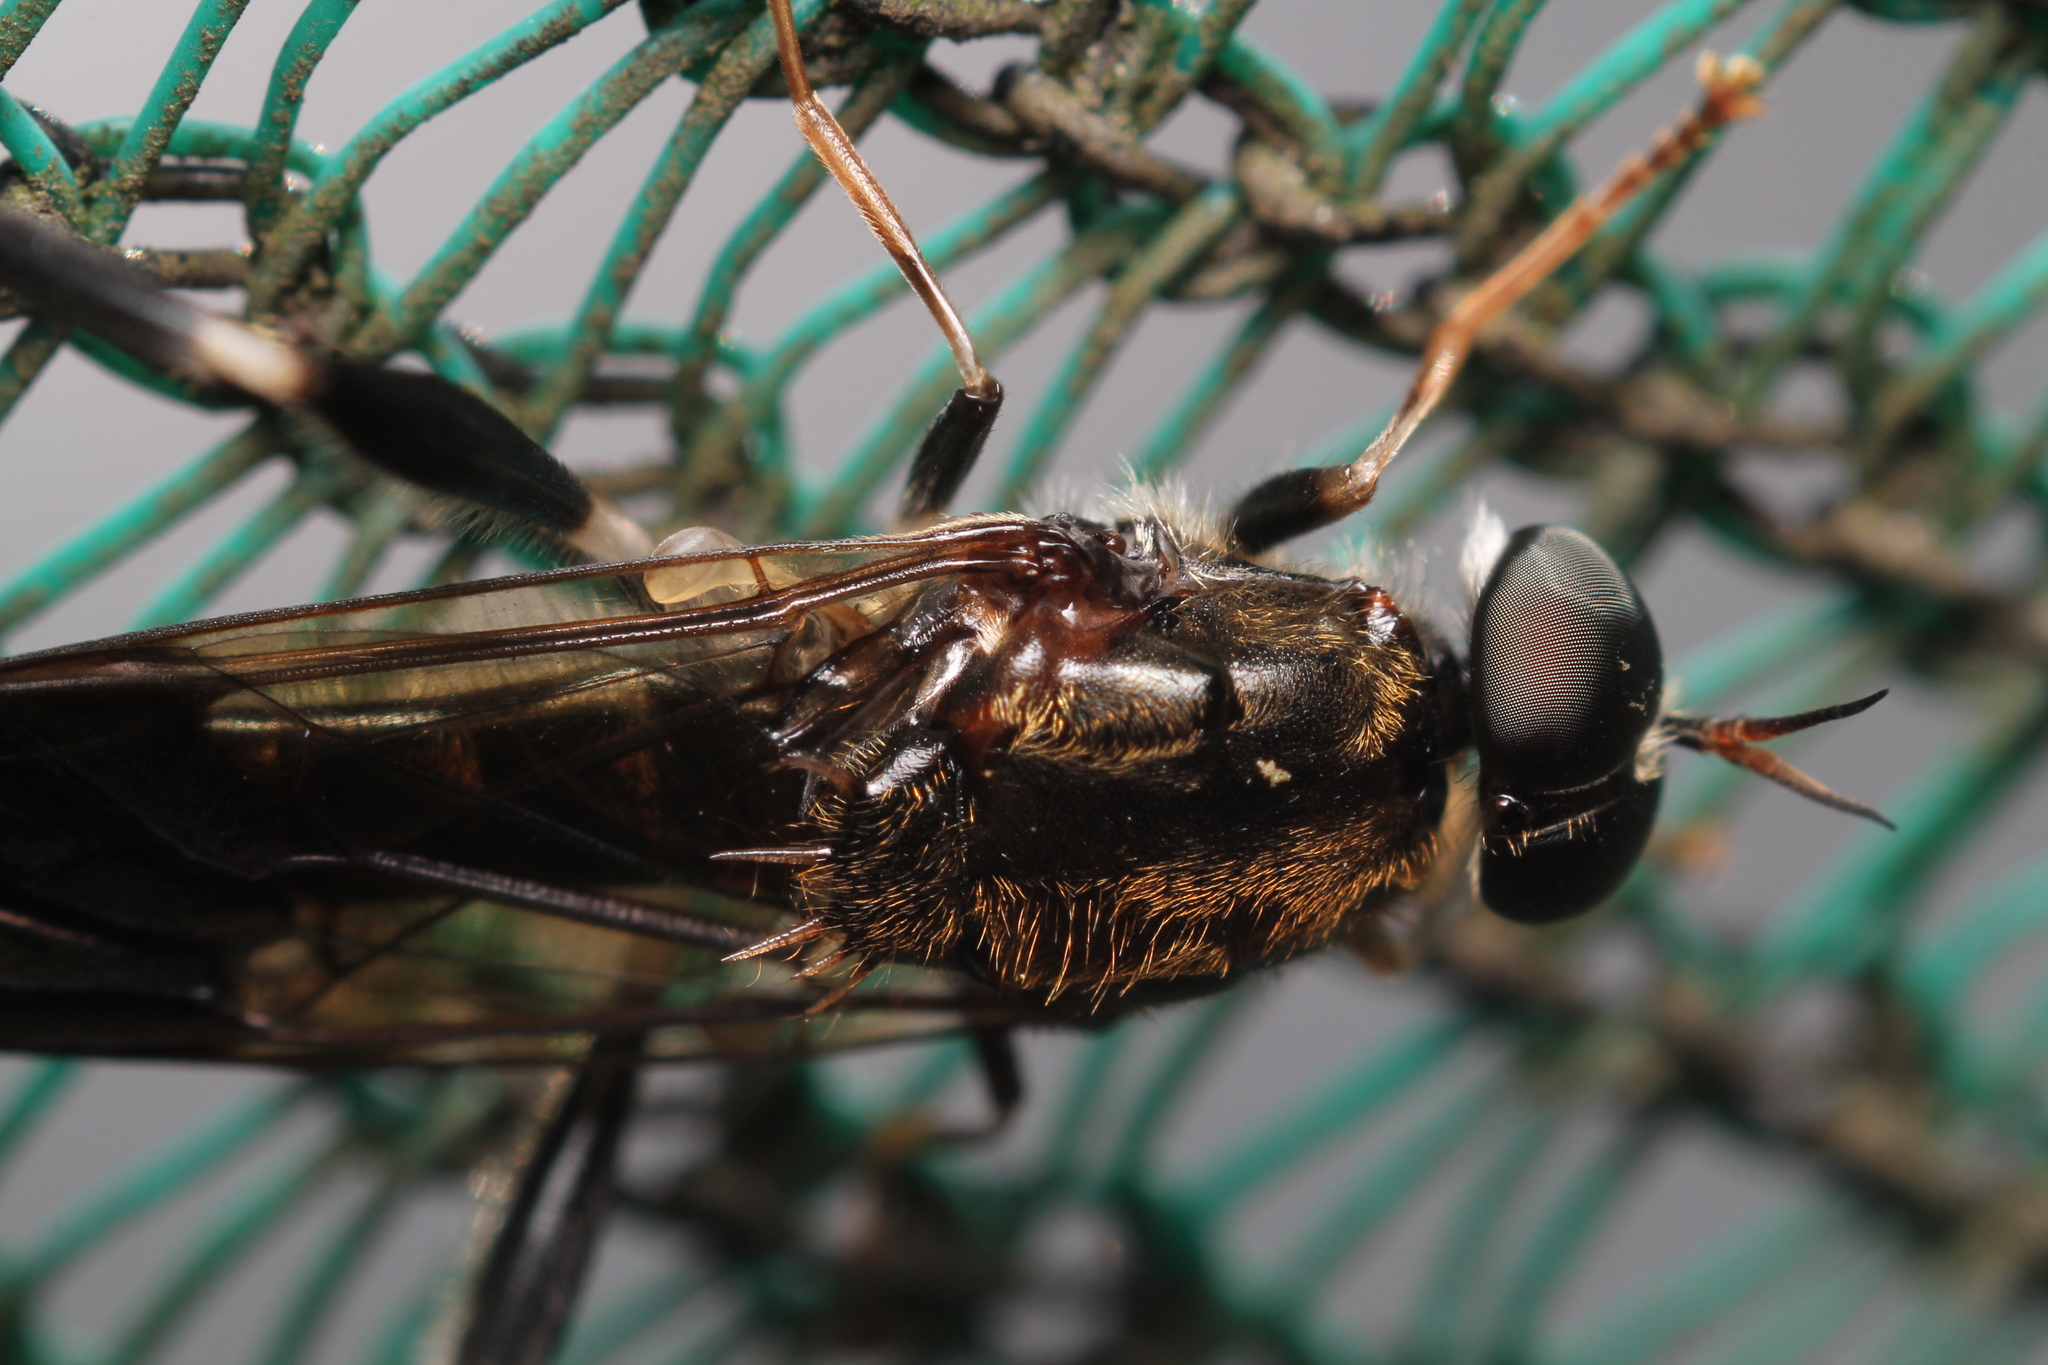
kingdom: Animalia
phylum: Arthropoda
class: Insecta
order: Diptera
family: Stratiomyidae
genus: Exaireta
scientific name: Exaireta spinigera
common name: Blue soldier fly
